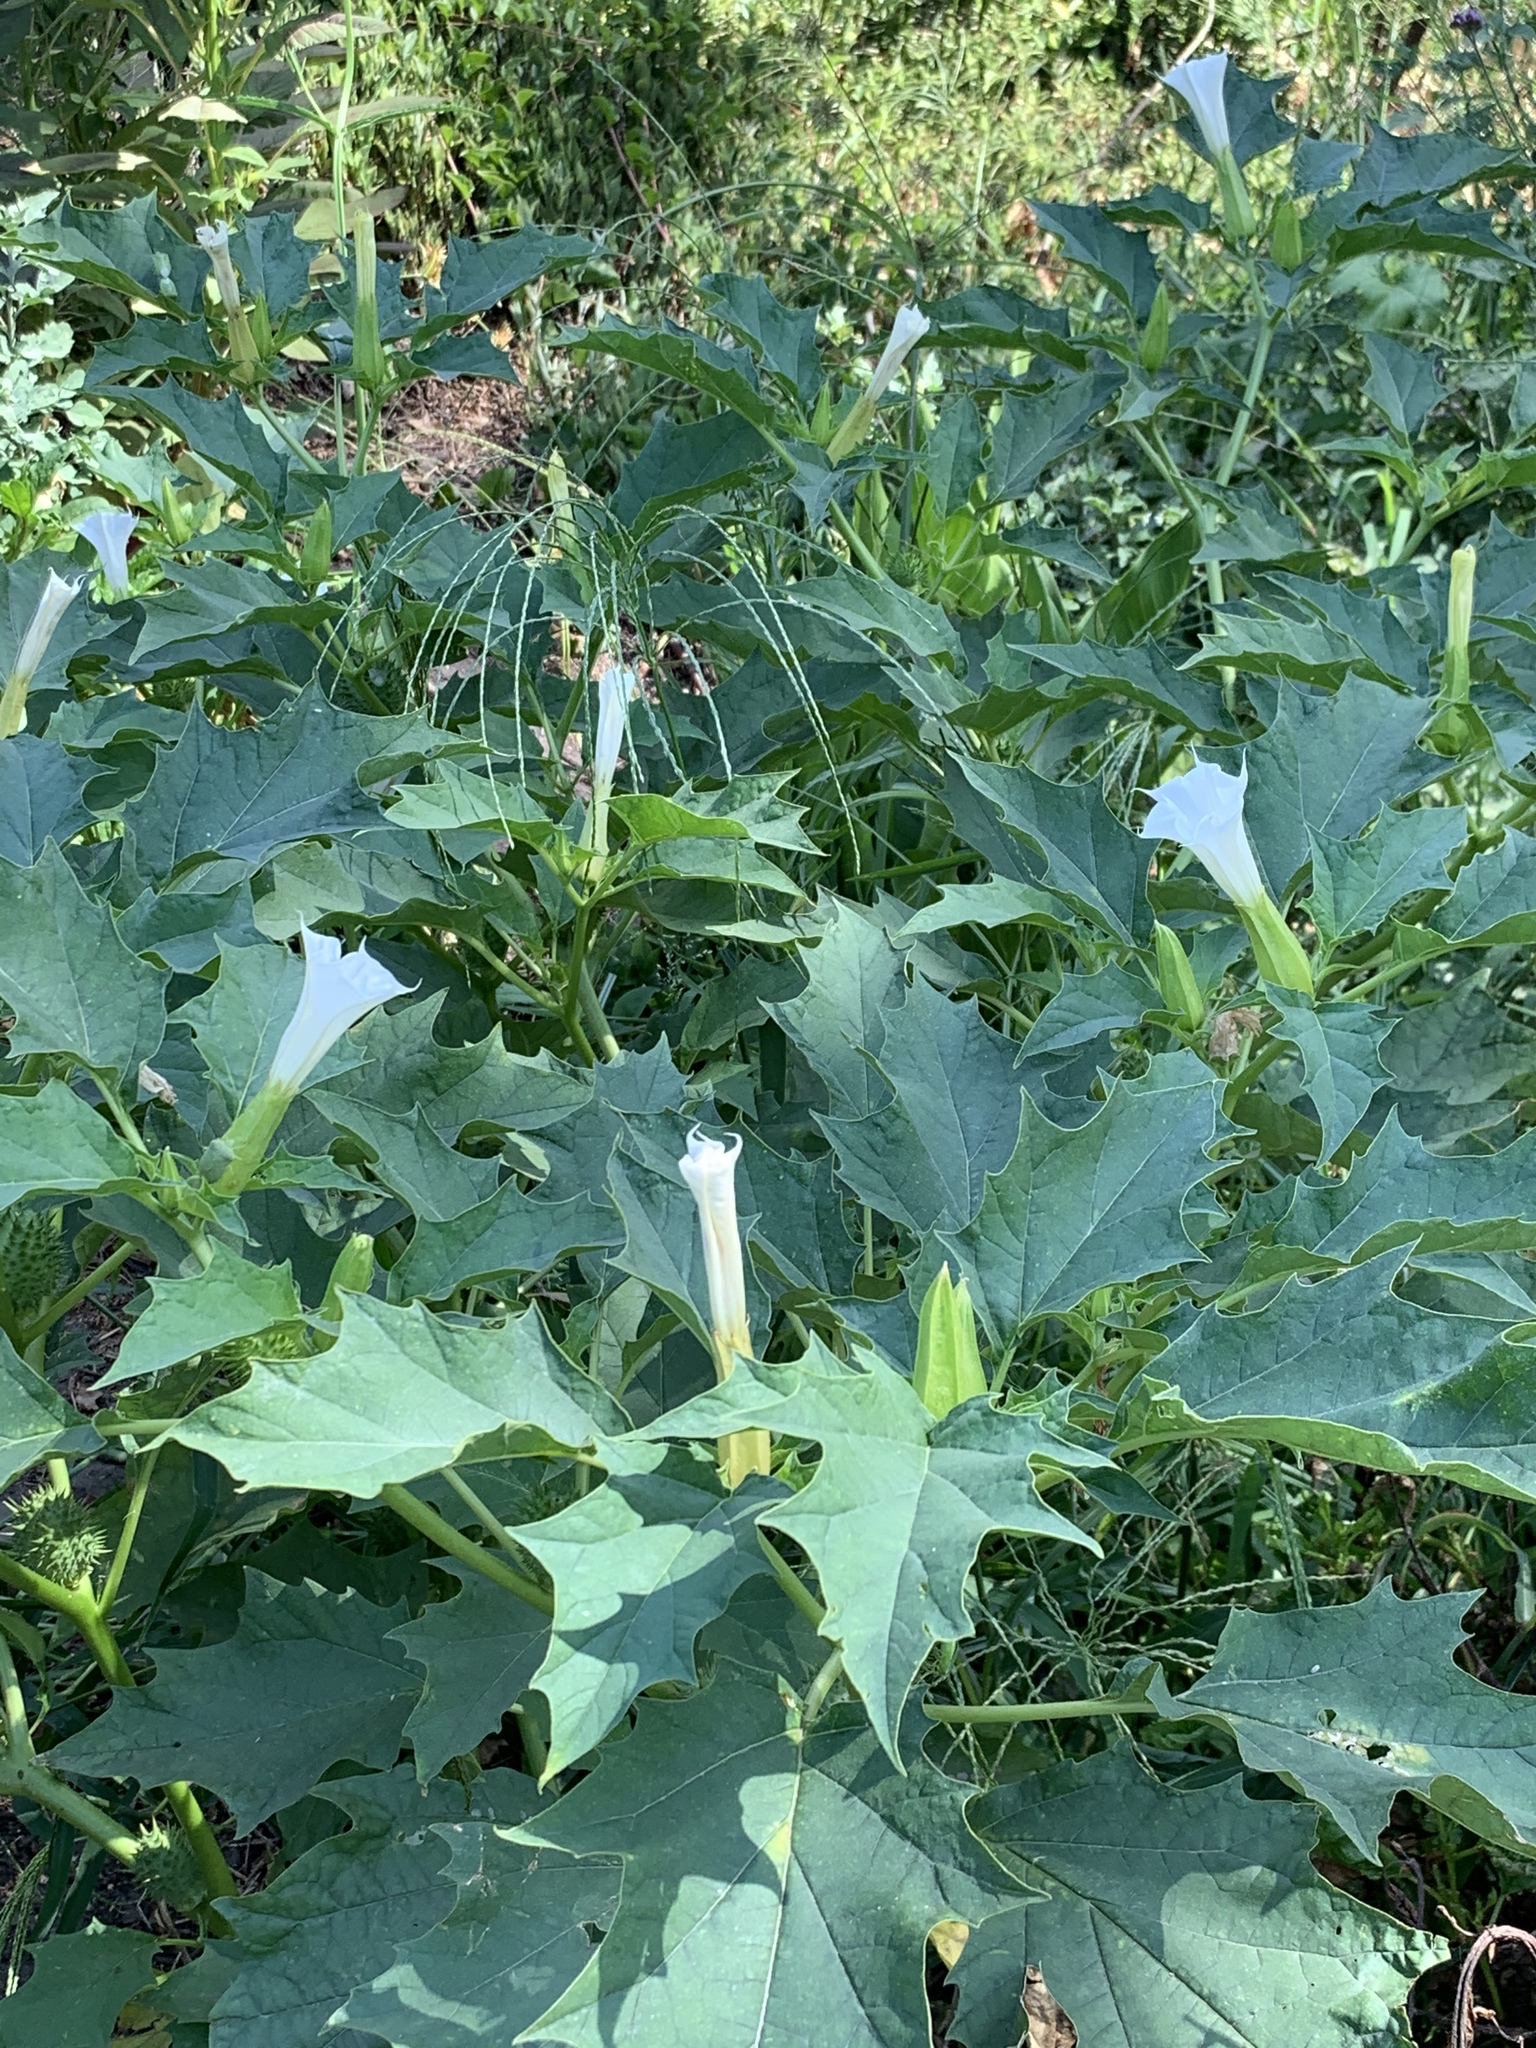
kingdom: Plantae
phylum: Tracheophyta
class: Magnoliopsida
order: Solanales
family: Solanaceae
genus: Datura
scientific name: Datura stramonium
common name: Thorn-apple
